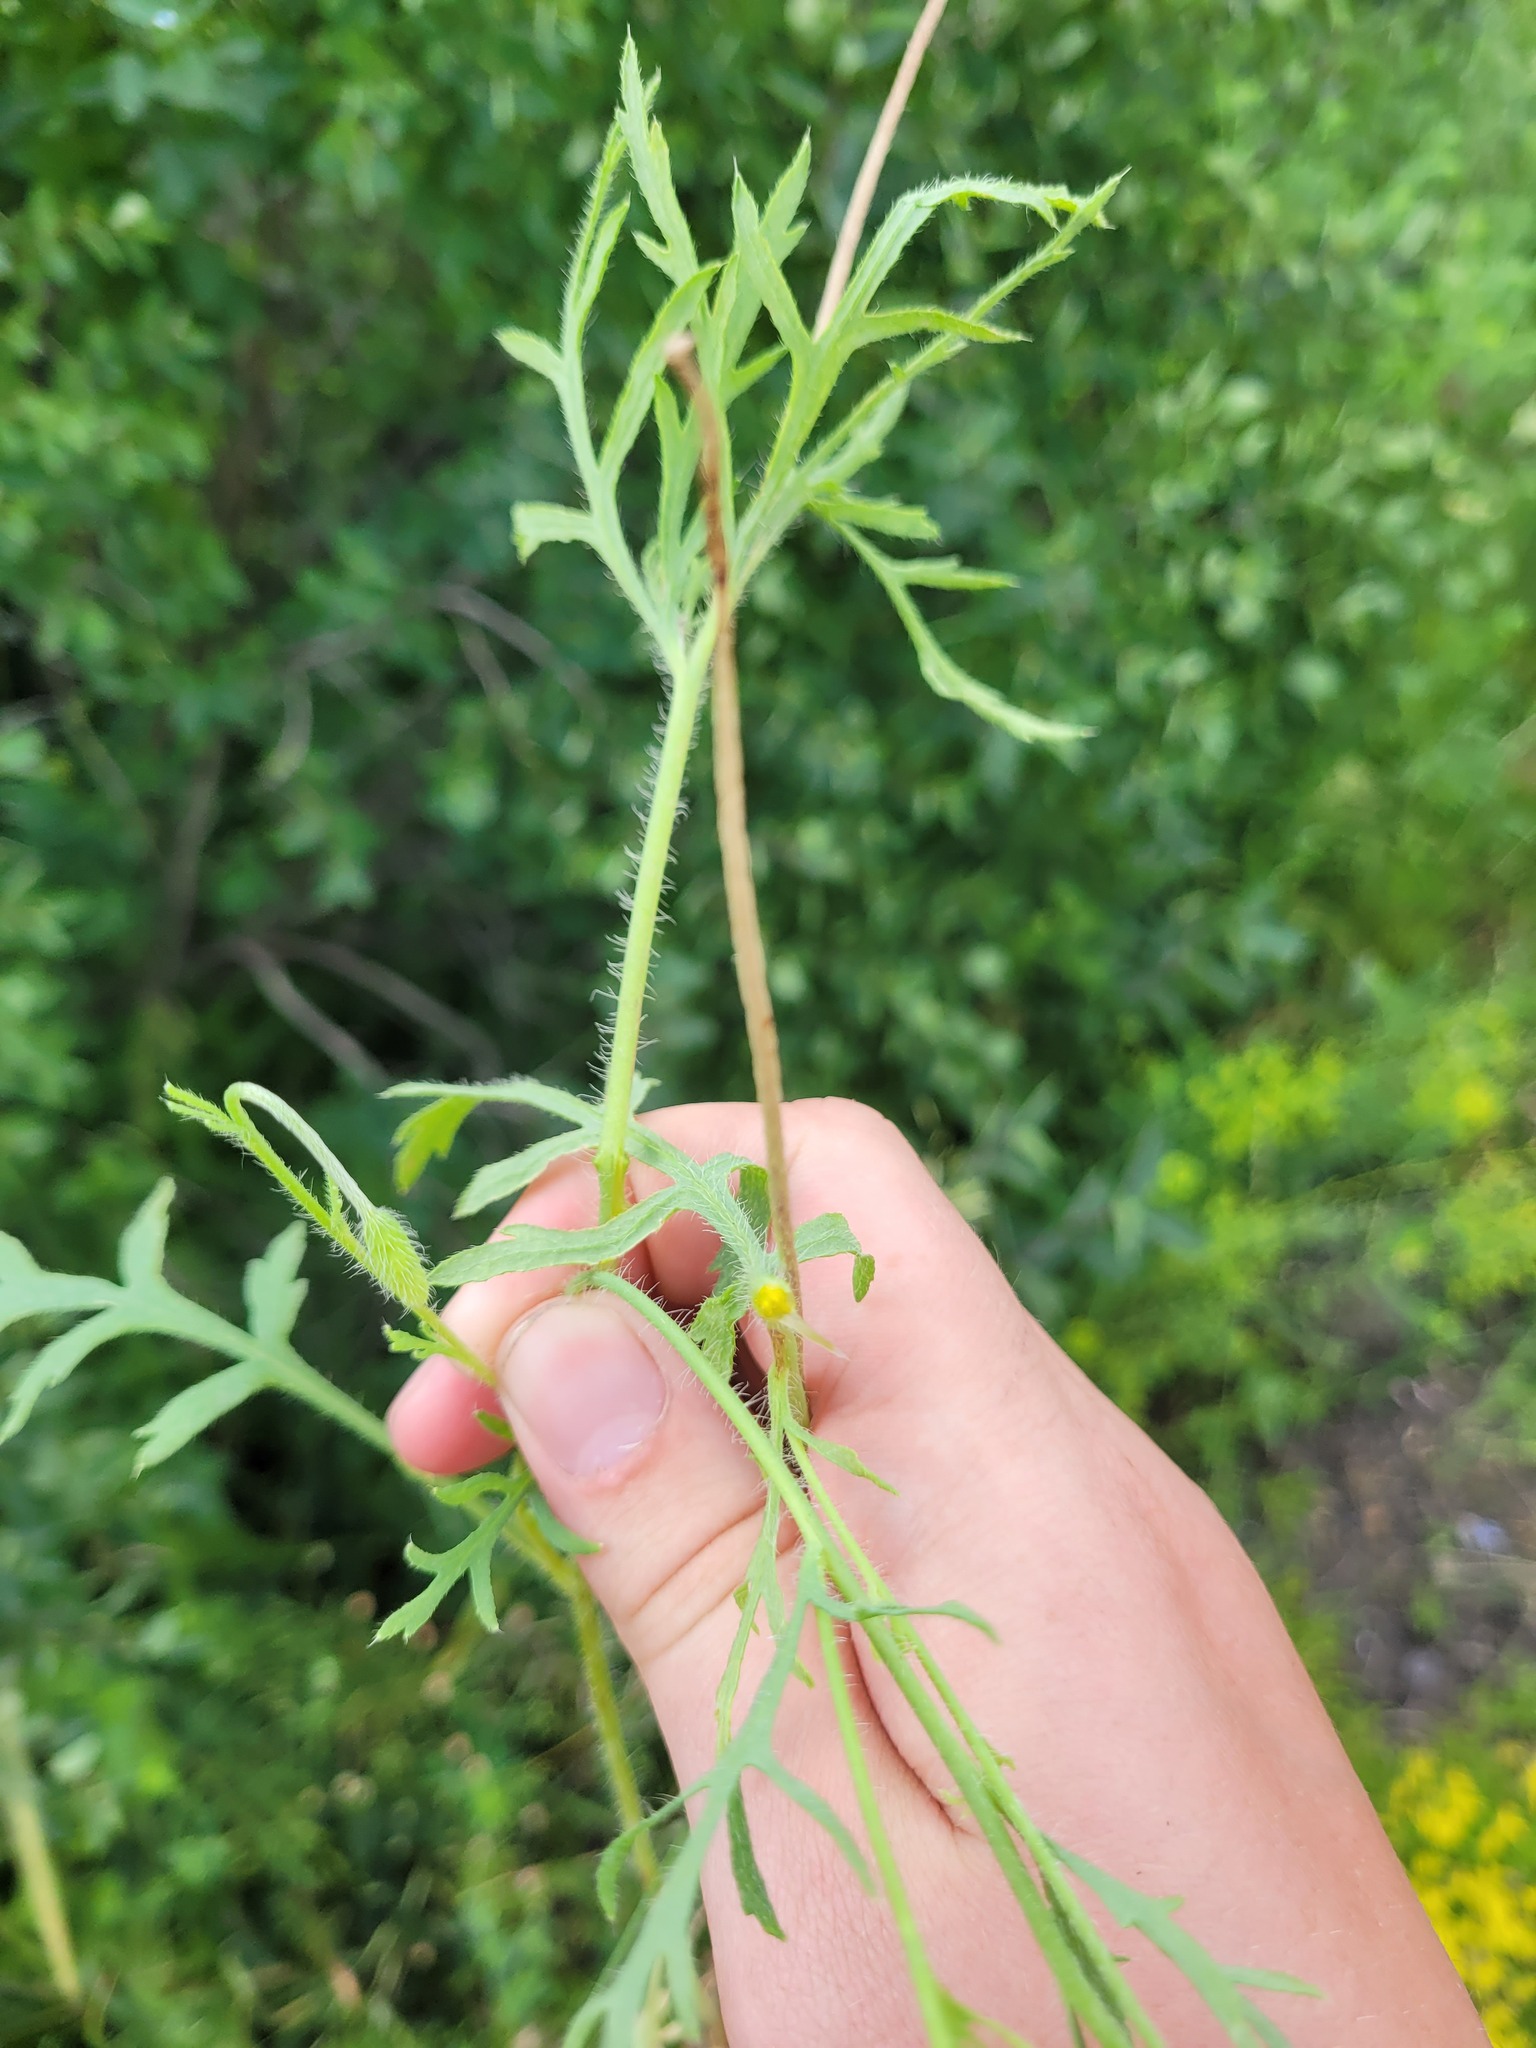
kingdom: Plantae
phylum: Tracheophyta
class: Magnoliopsida
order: Ranunculales
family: Papaveraceae
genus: Papaver
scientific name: Papaver dubium
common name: Long-headed poppy
